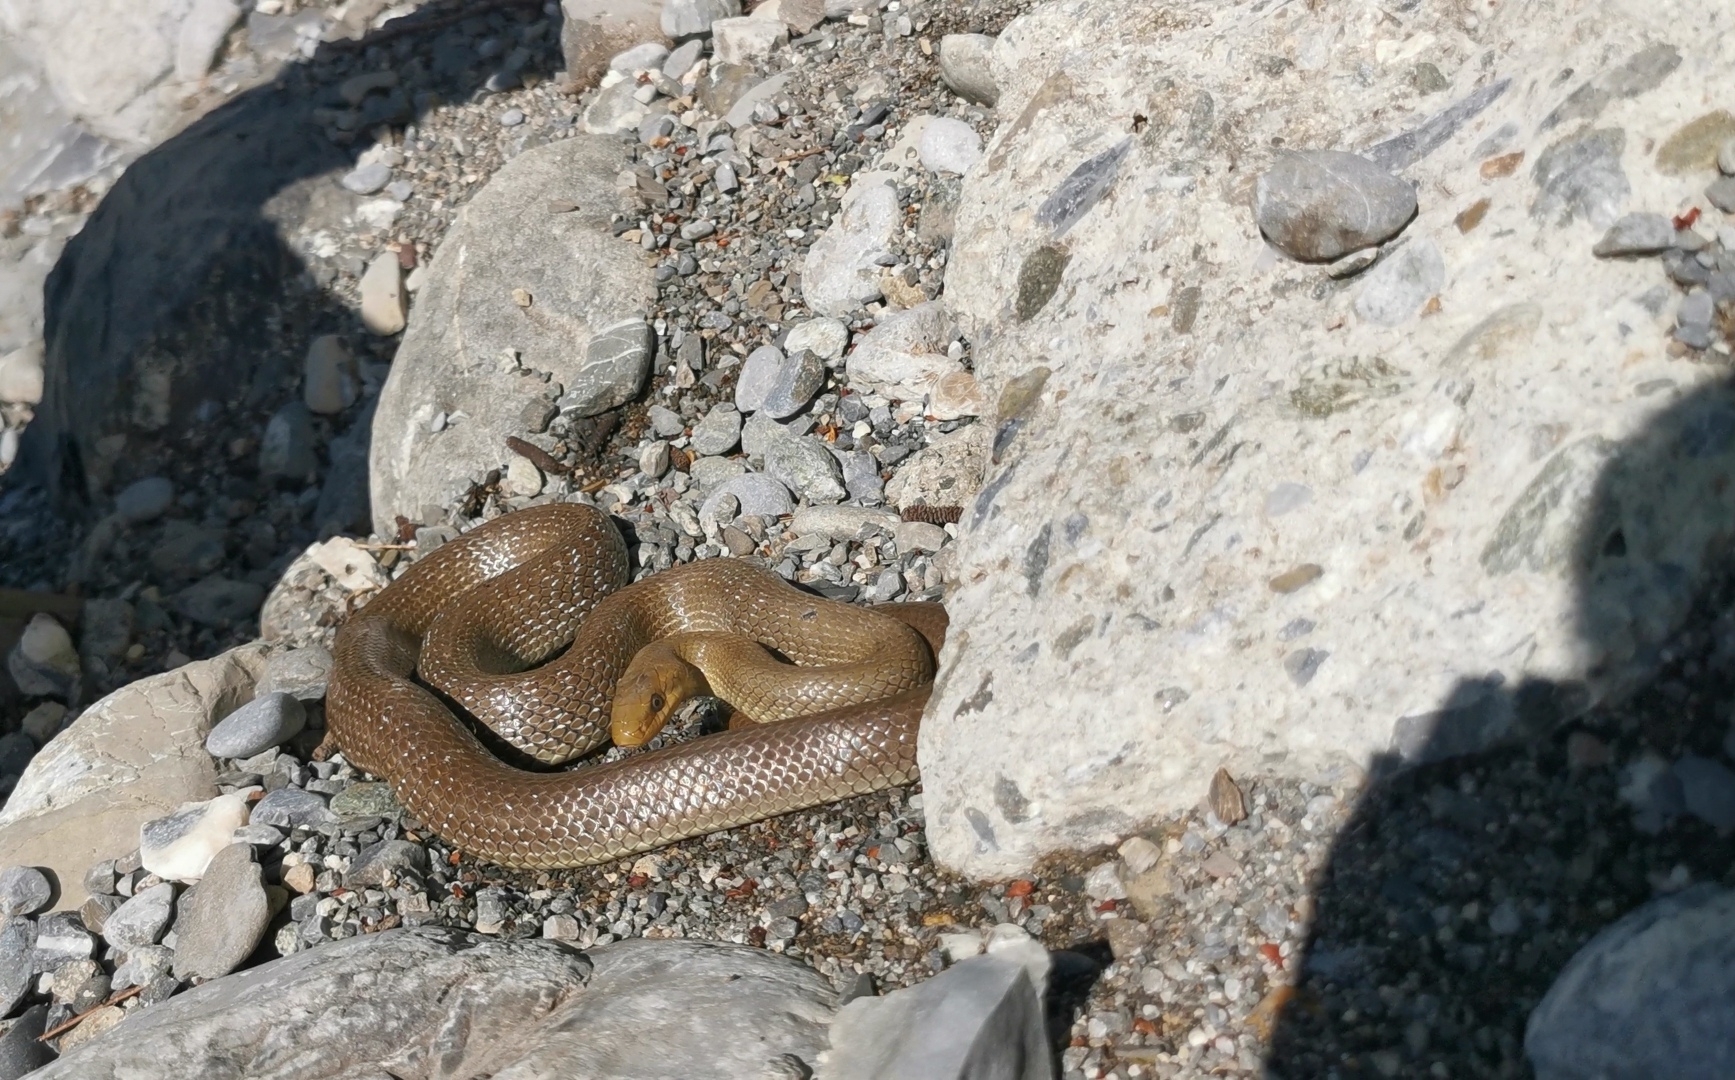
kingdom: Animalia
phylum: Chordata
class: Squamata
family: Colubridae
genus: Zamenis
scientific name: Zamenis longissimus
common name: Aesculapean snake
